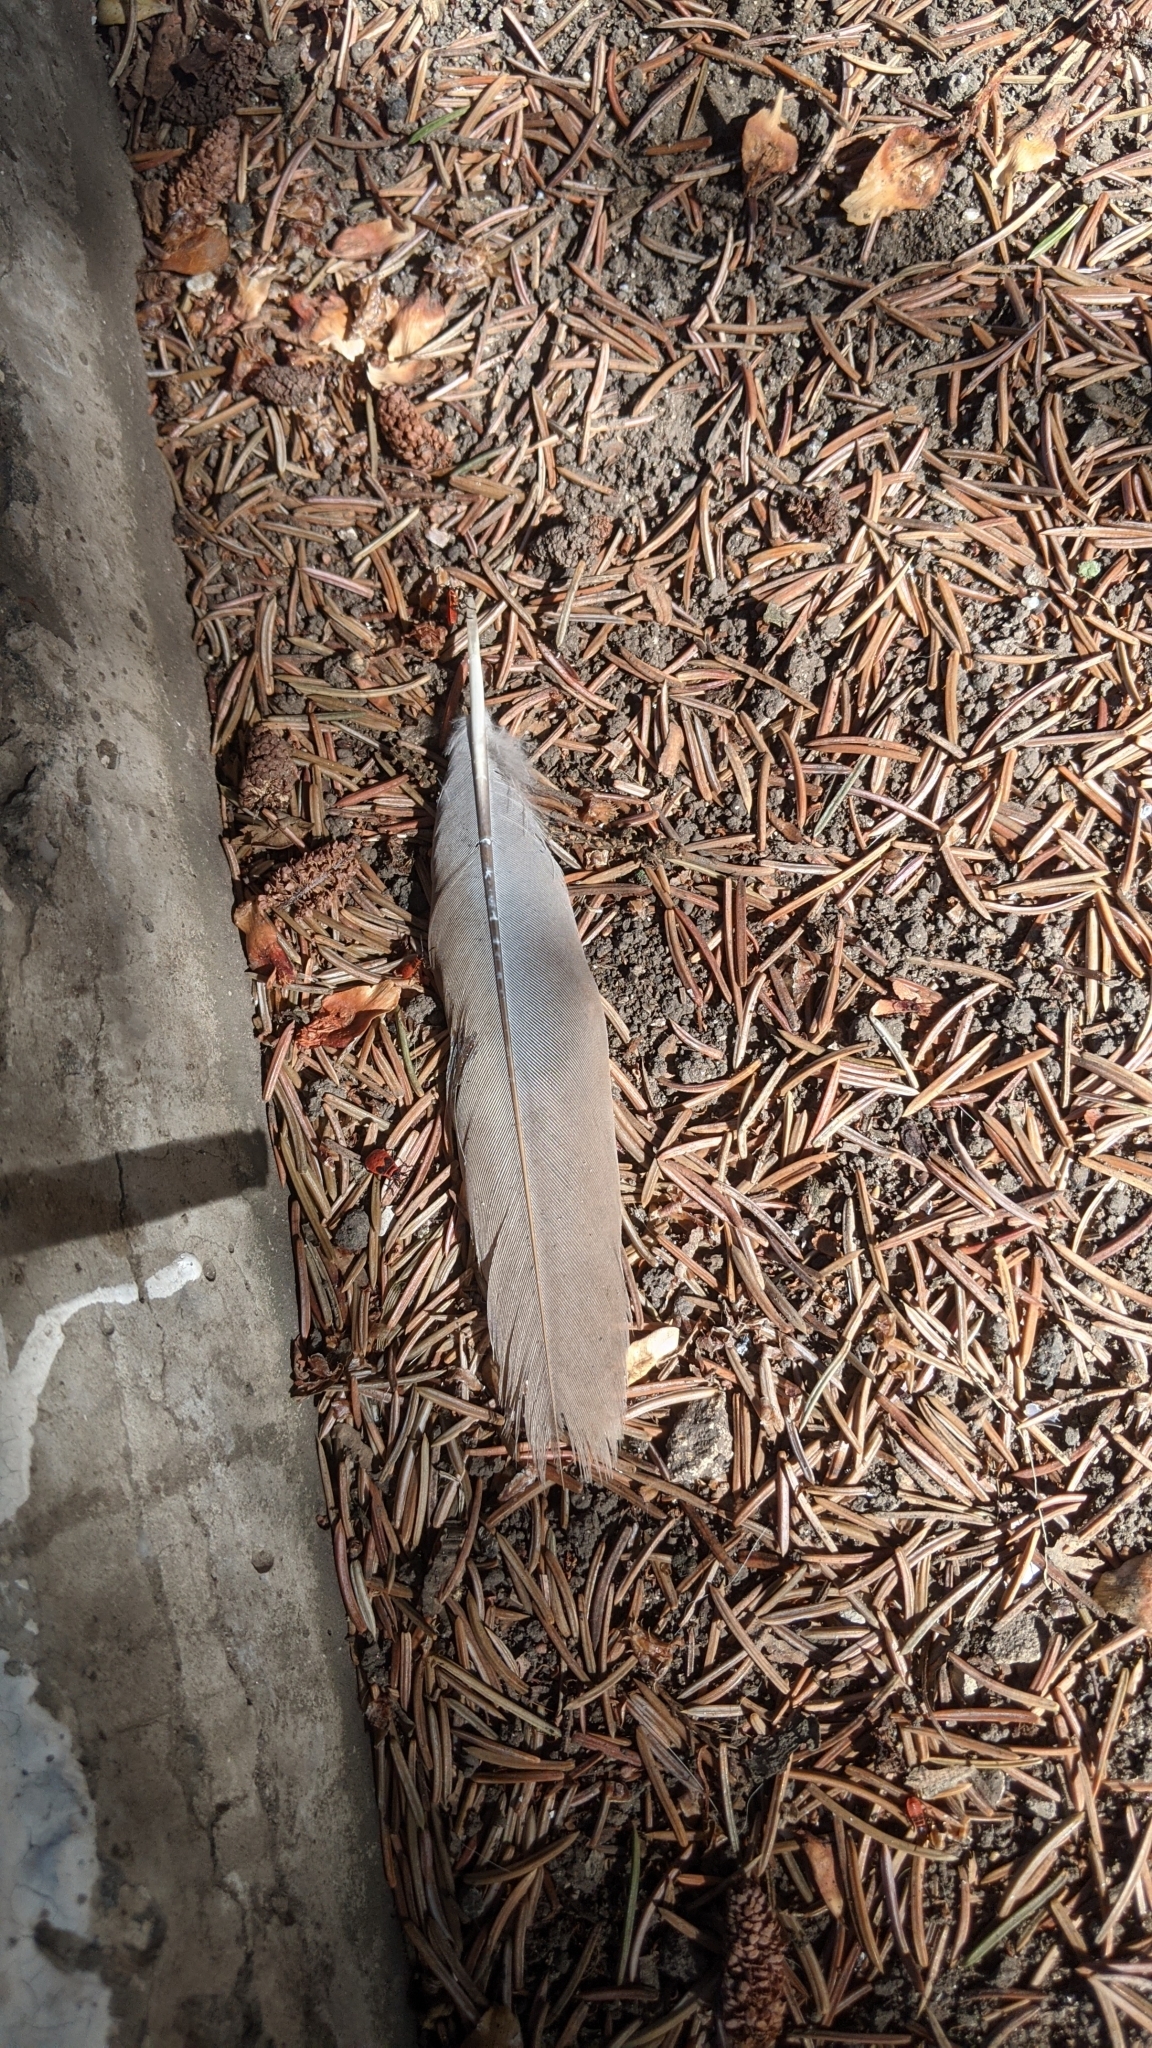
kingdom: Animalia
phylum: Chordata
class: Aves
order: Columbiformes
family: Columbidae
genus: Streptopelia
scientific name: Streptopelia decaocto
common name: Eurasian collared dove
